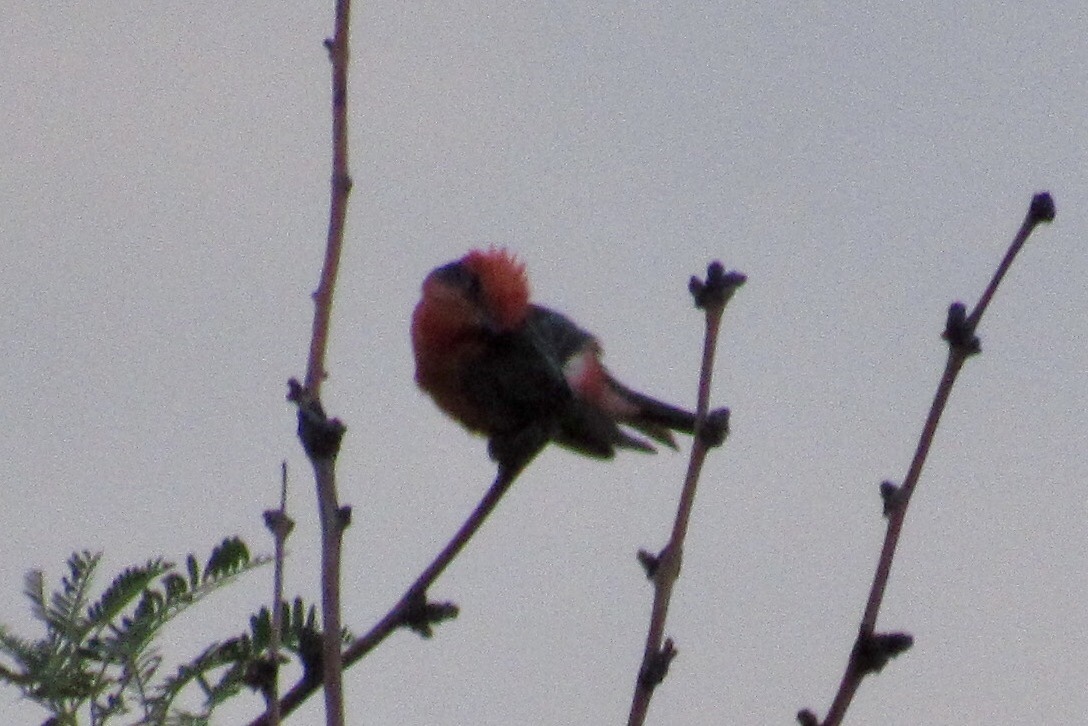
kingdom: Animalia
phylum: Chordata
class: Aves
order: Passeriformes
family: Tyrannidae
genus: Pyrocephalus
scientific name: Pyrocephalus rubinus
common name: Vermilion flycatcher
